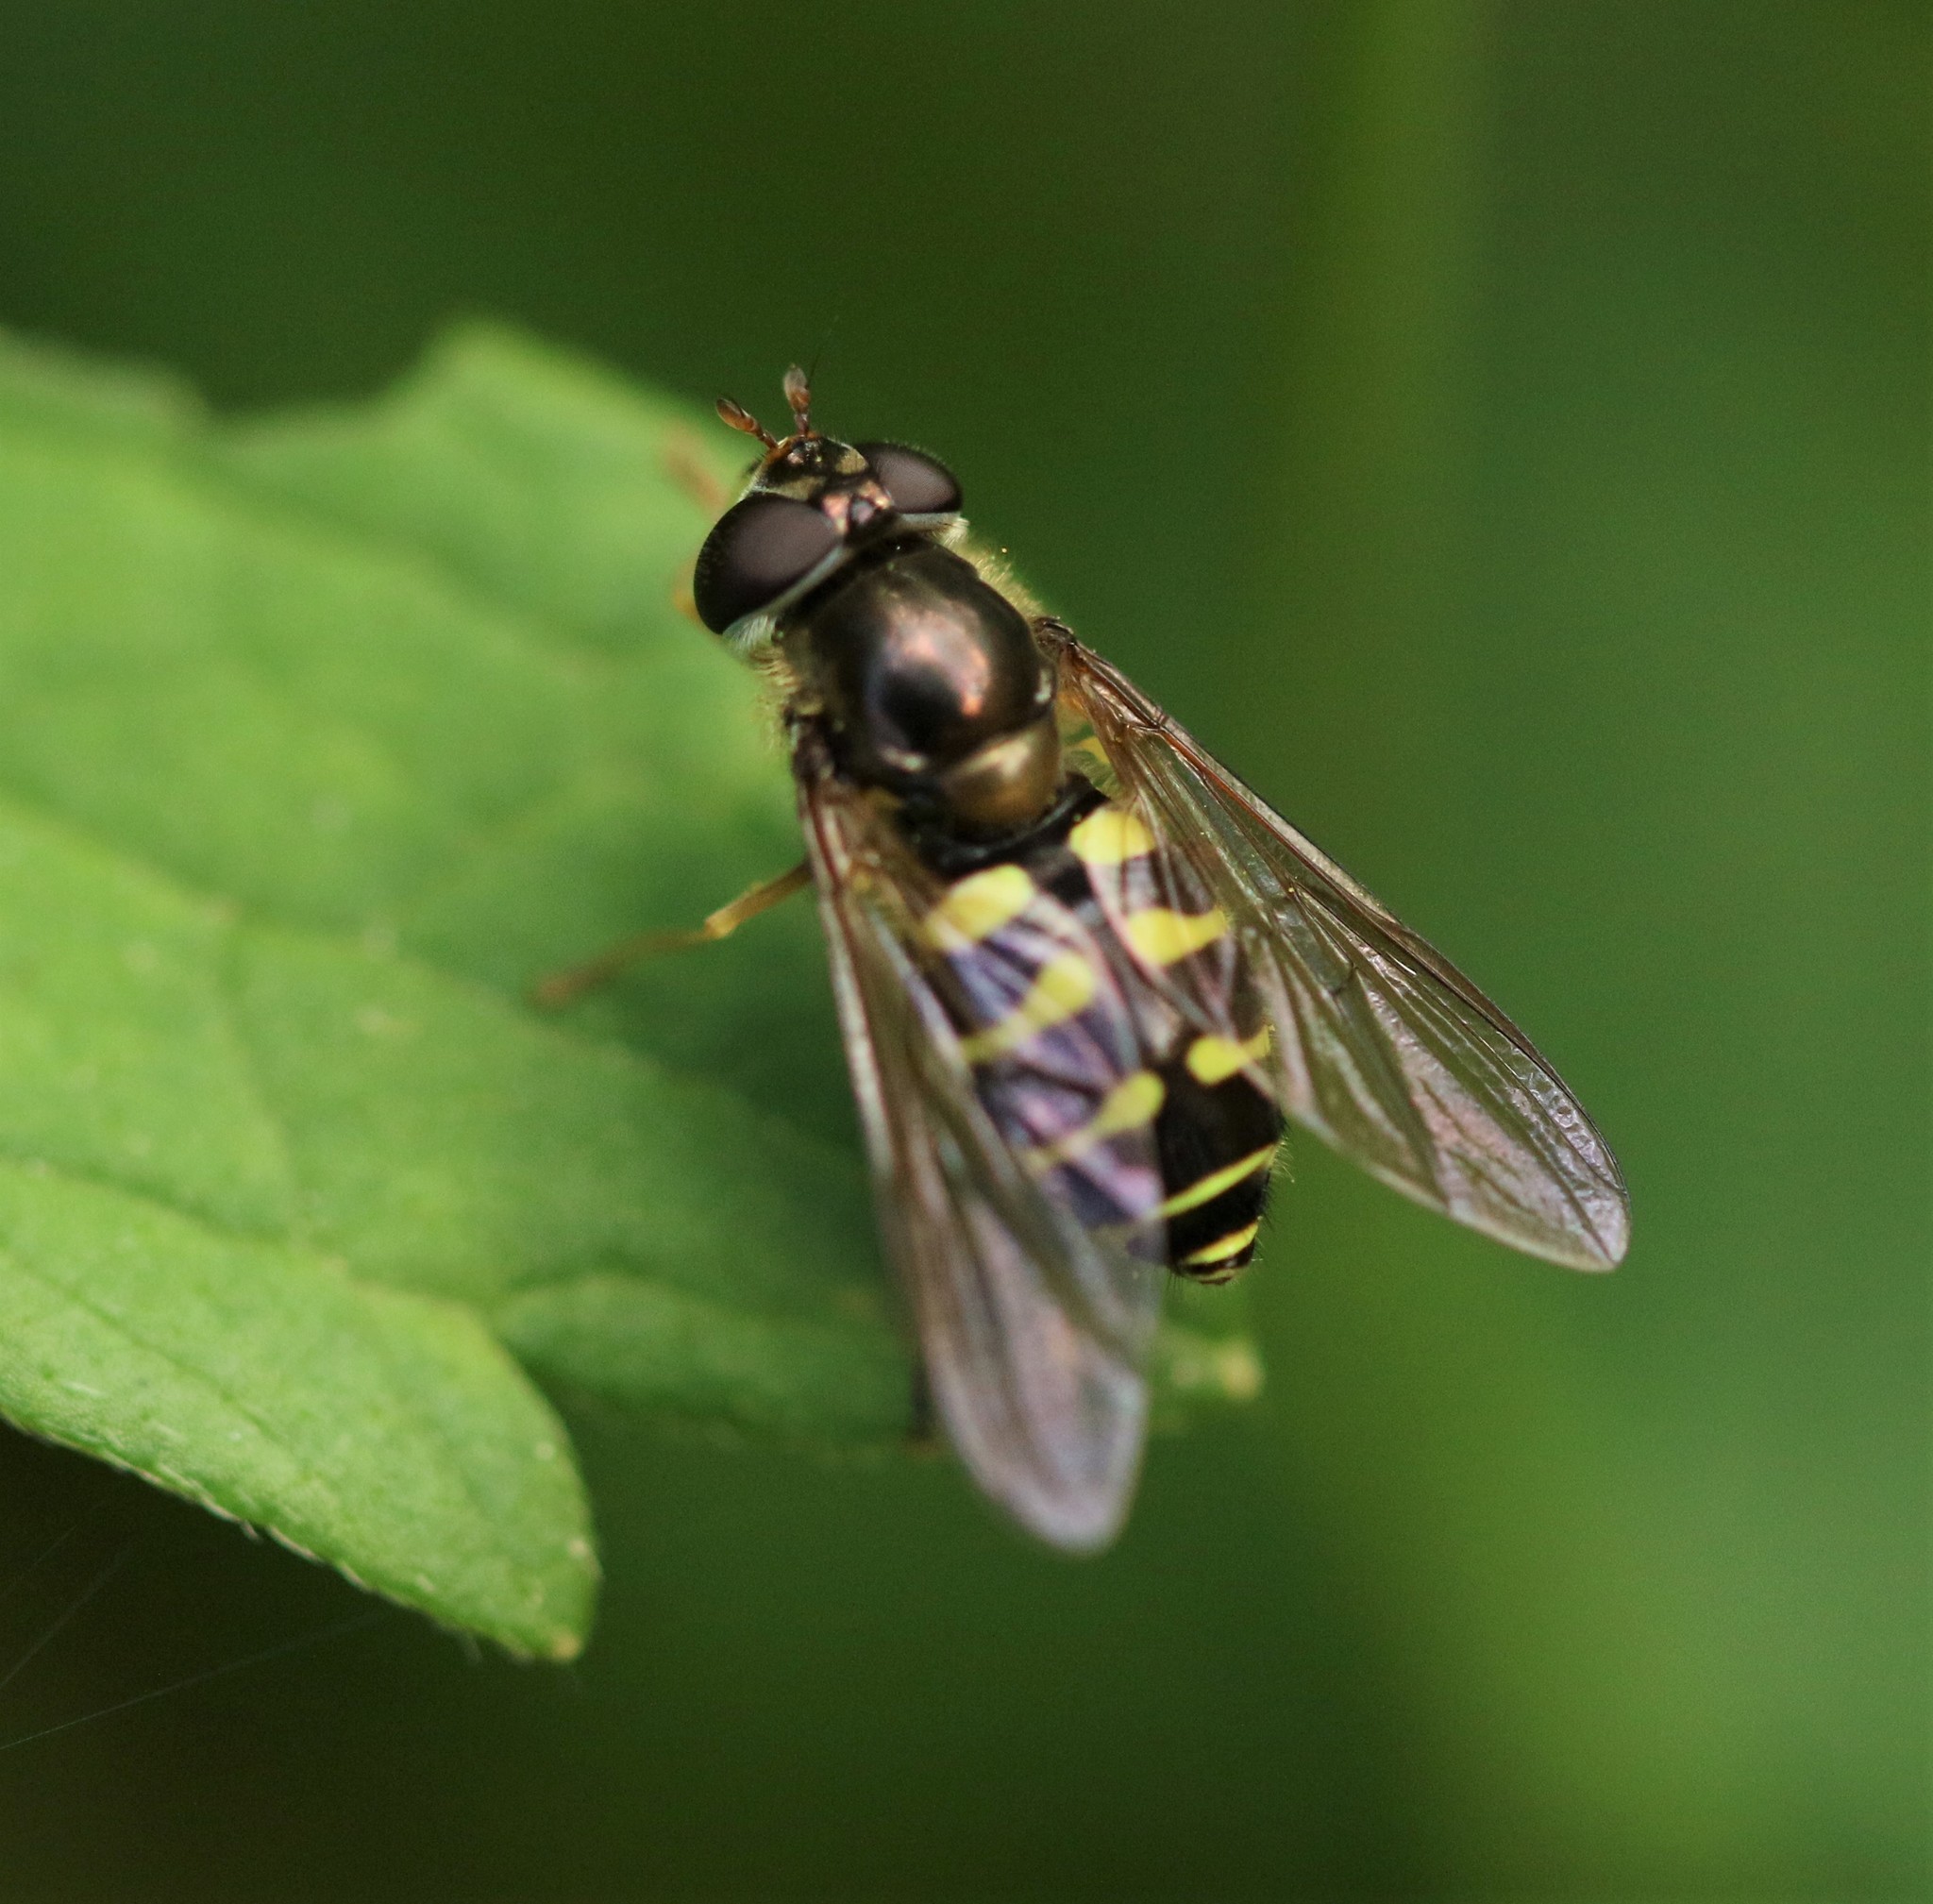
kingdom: Animalia
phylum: Arthropoda
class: Insecta
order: Diptera
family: Syrphidae
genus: Dasysyrphus
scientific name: Dasysyrphus venustus
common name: Transverse conifer fly
